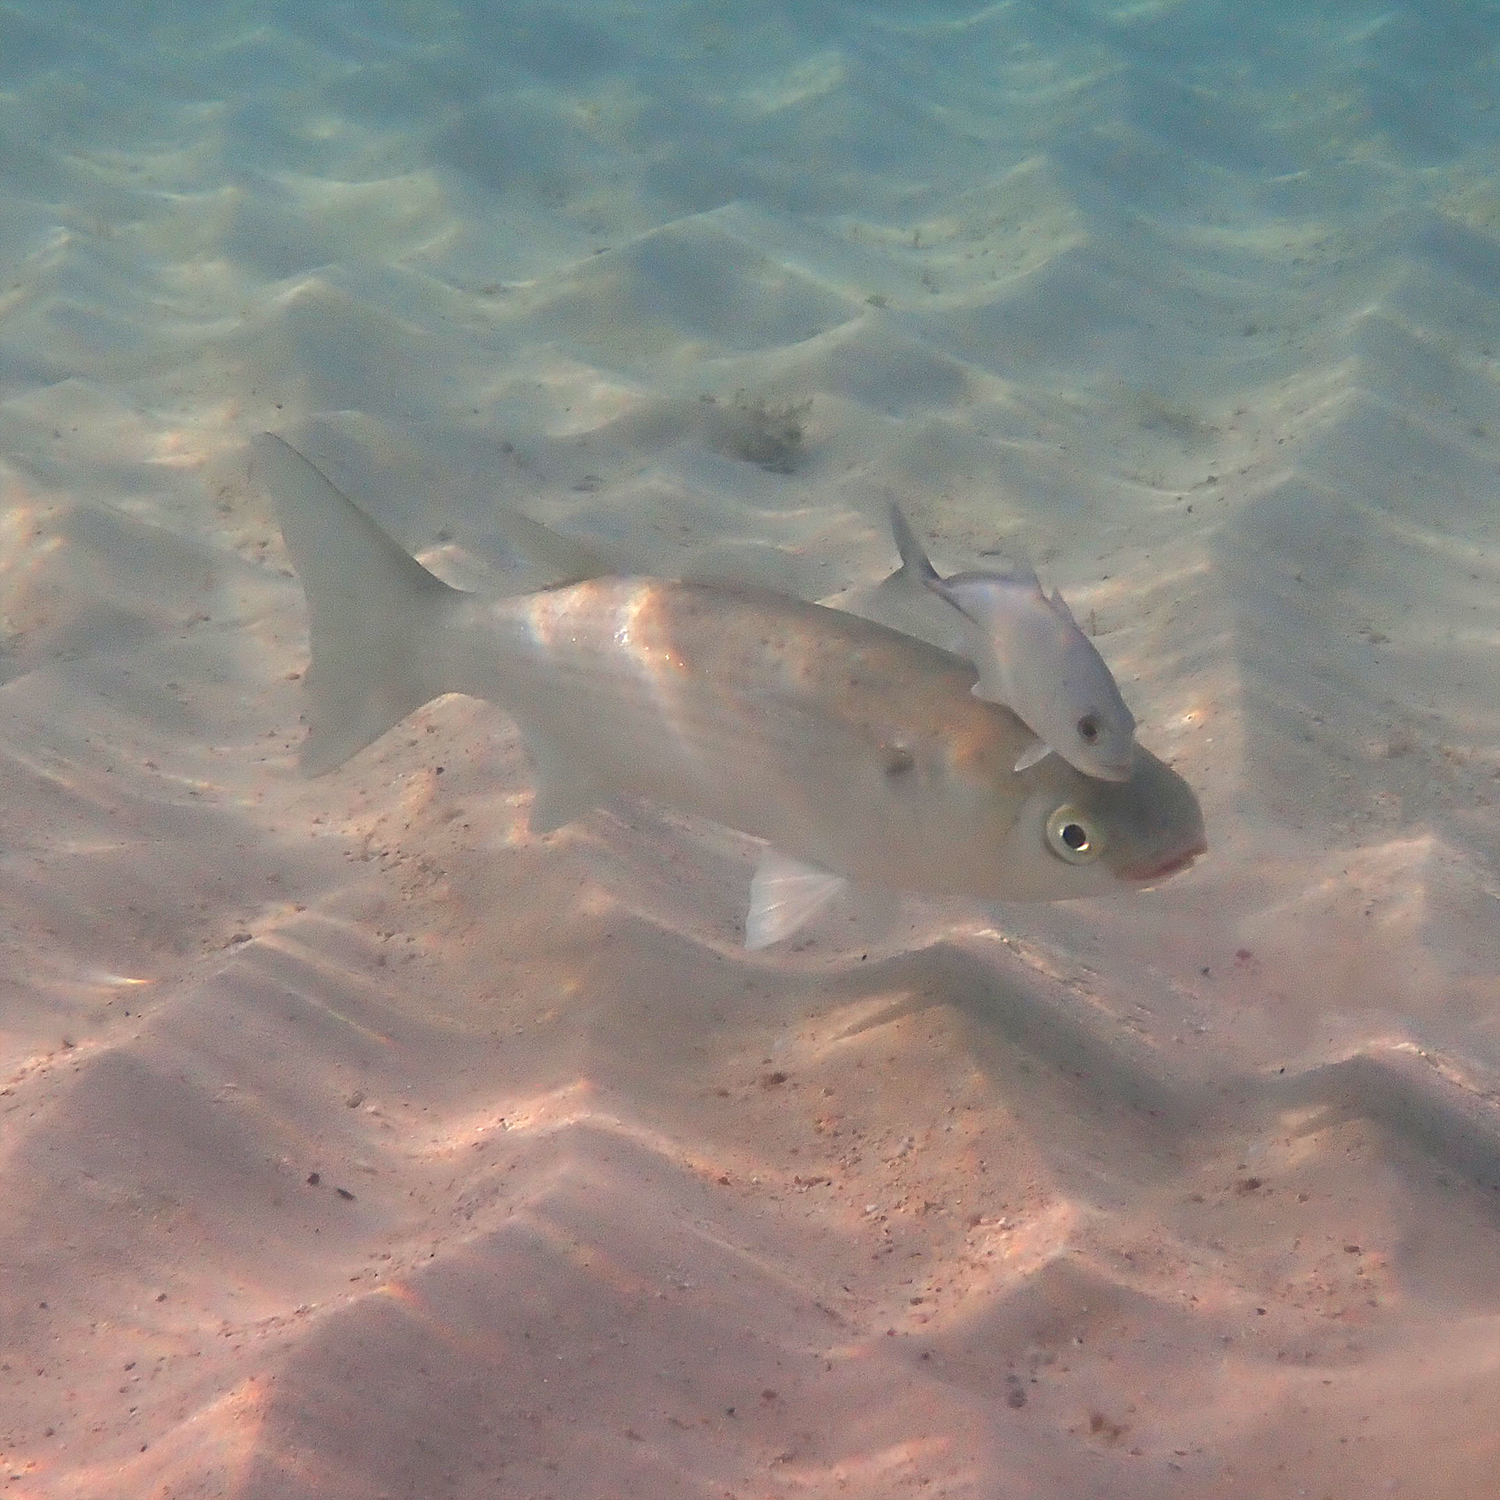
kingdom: Animalia
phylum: Chordata
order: Mugiliformes
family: Mugilidae
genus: Mugil
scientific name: Mugil cephalus
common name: Grey mullet
